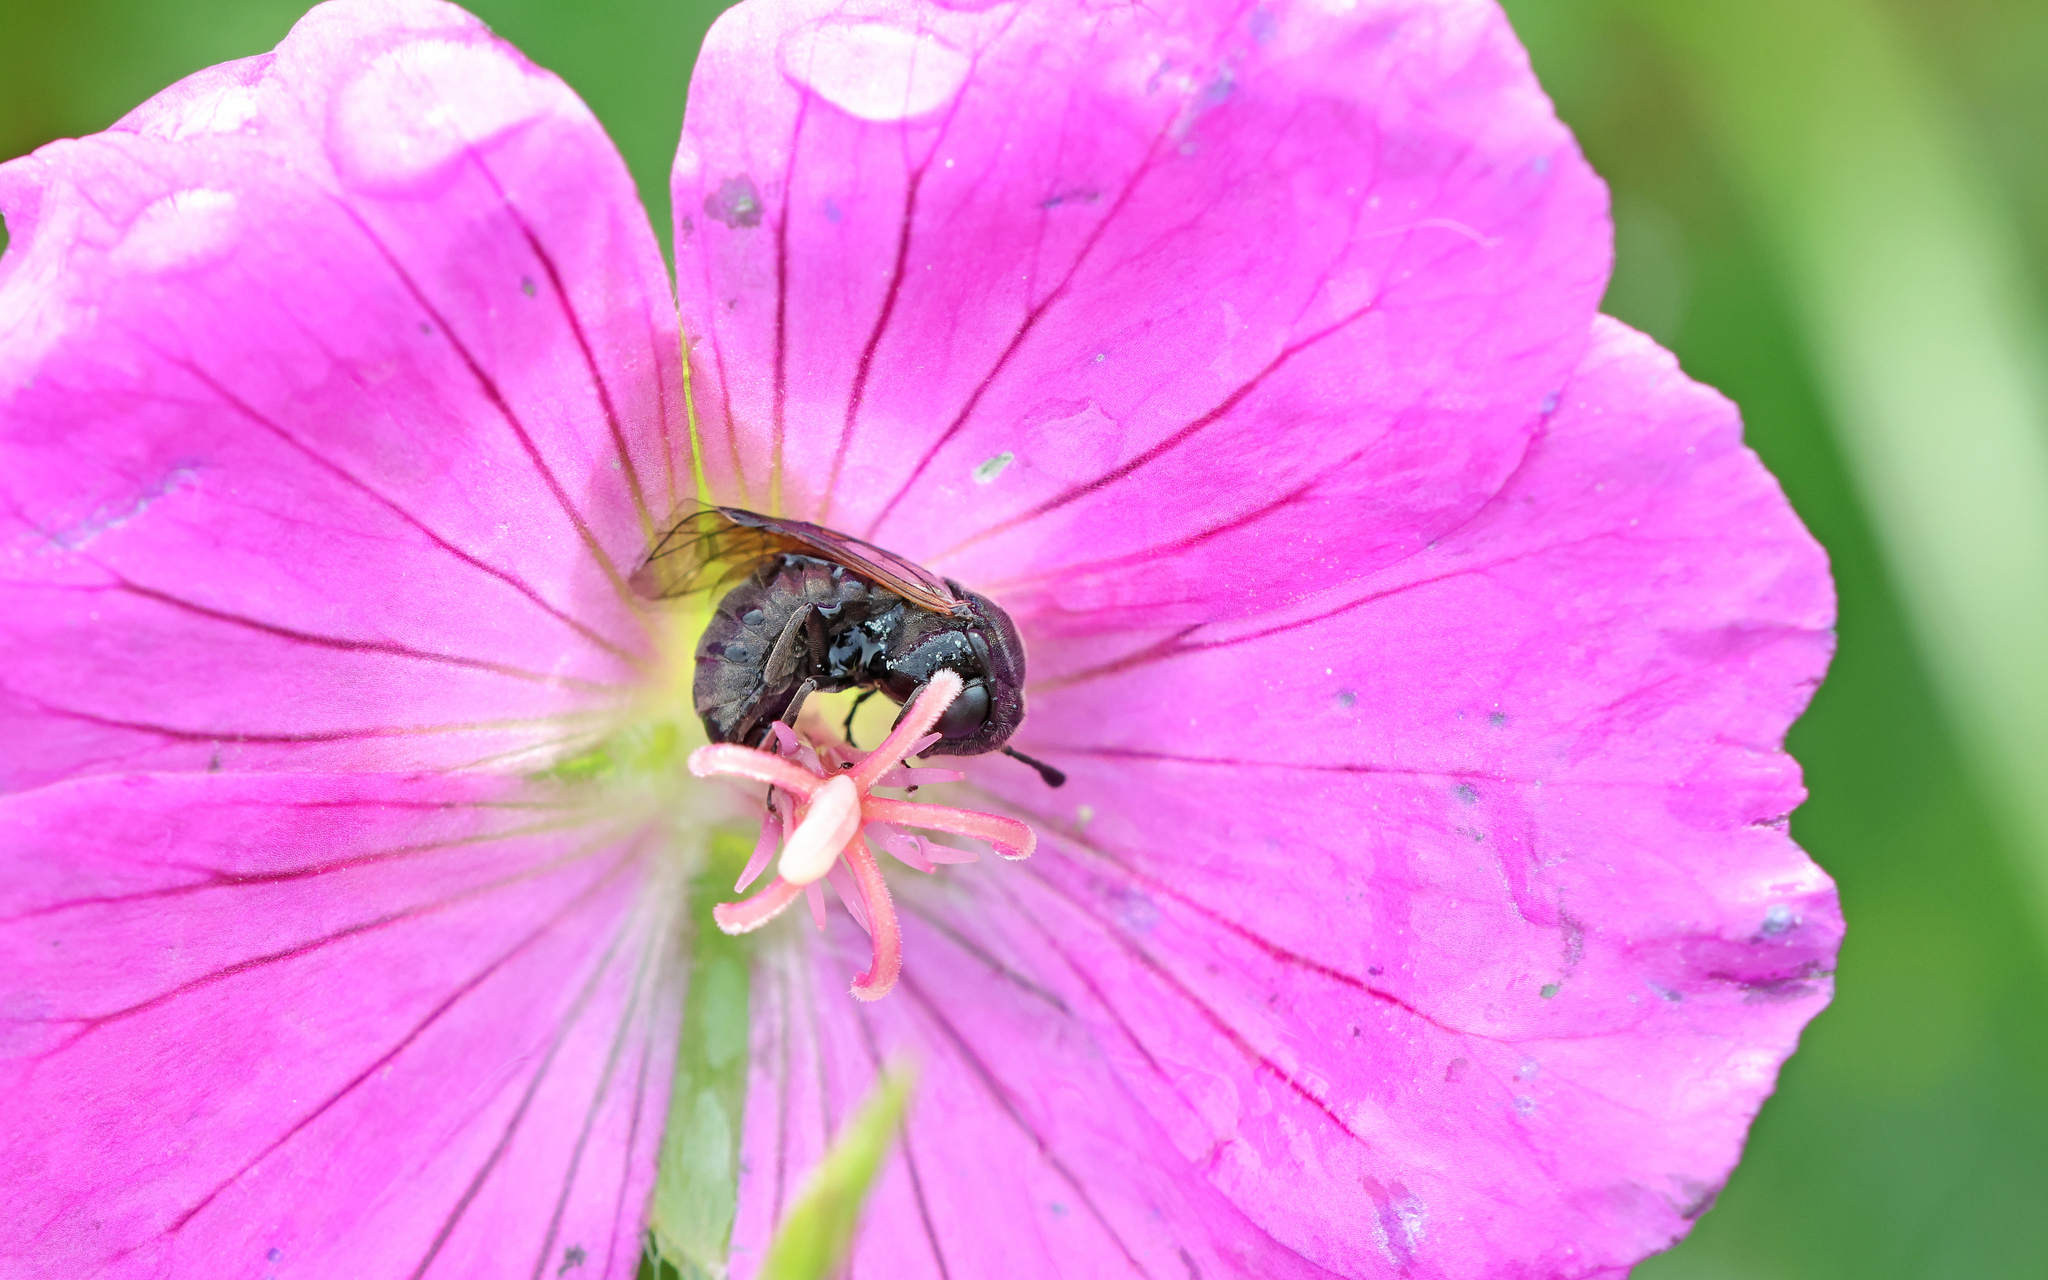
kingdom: Animalia
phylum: Arthropoda
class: Insecta
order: Hymenoptera
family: Cimbicidae
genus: Corynis
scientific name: Corynis obscura
